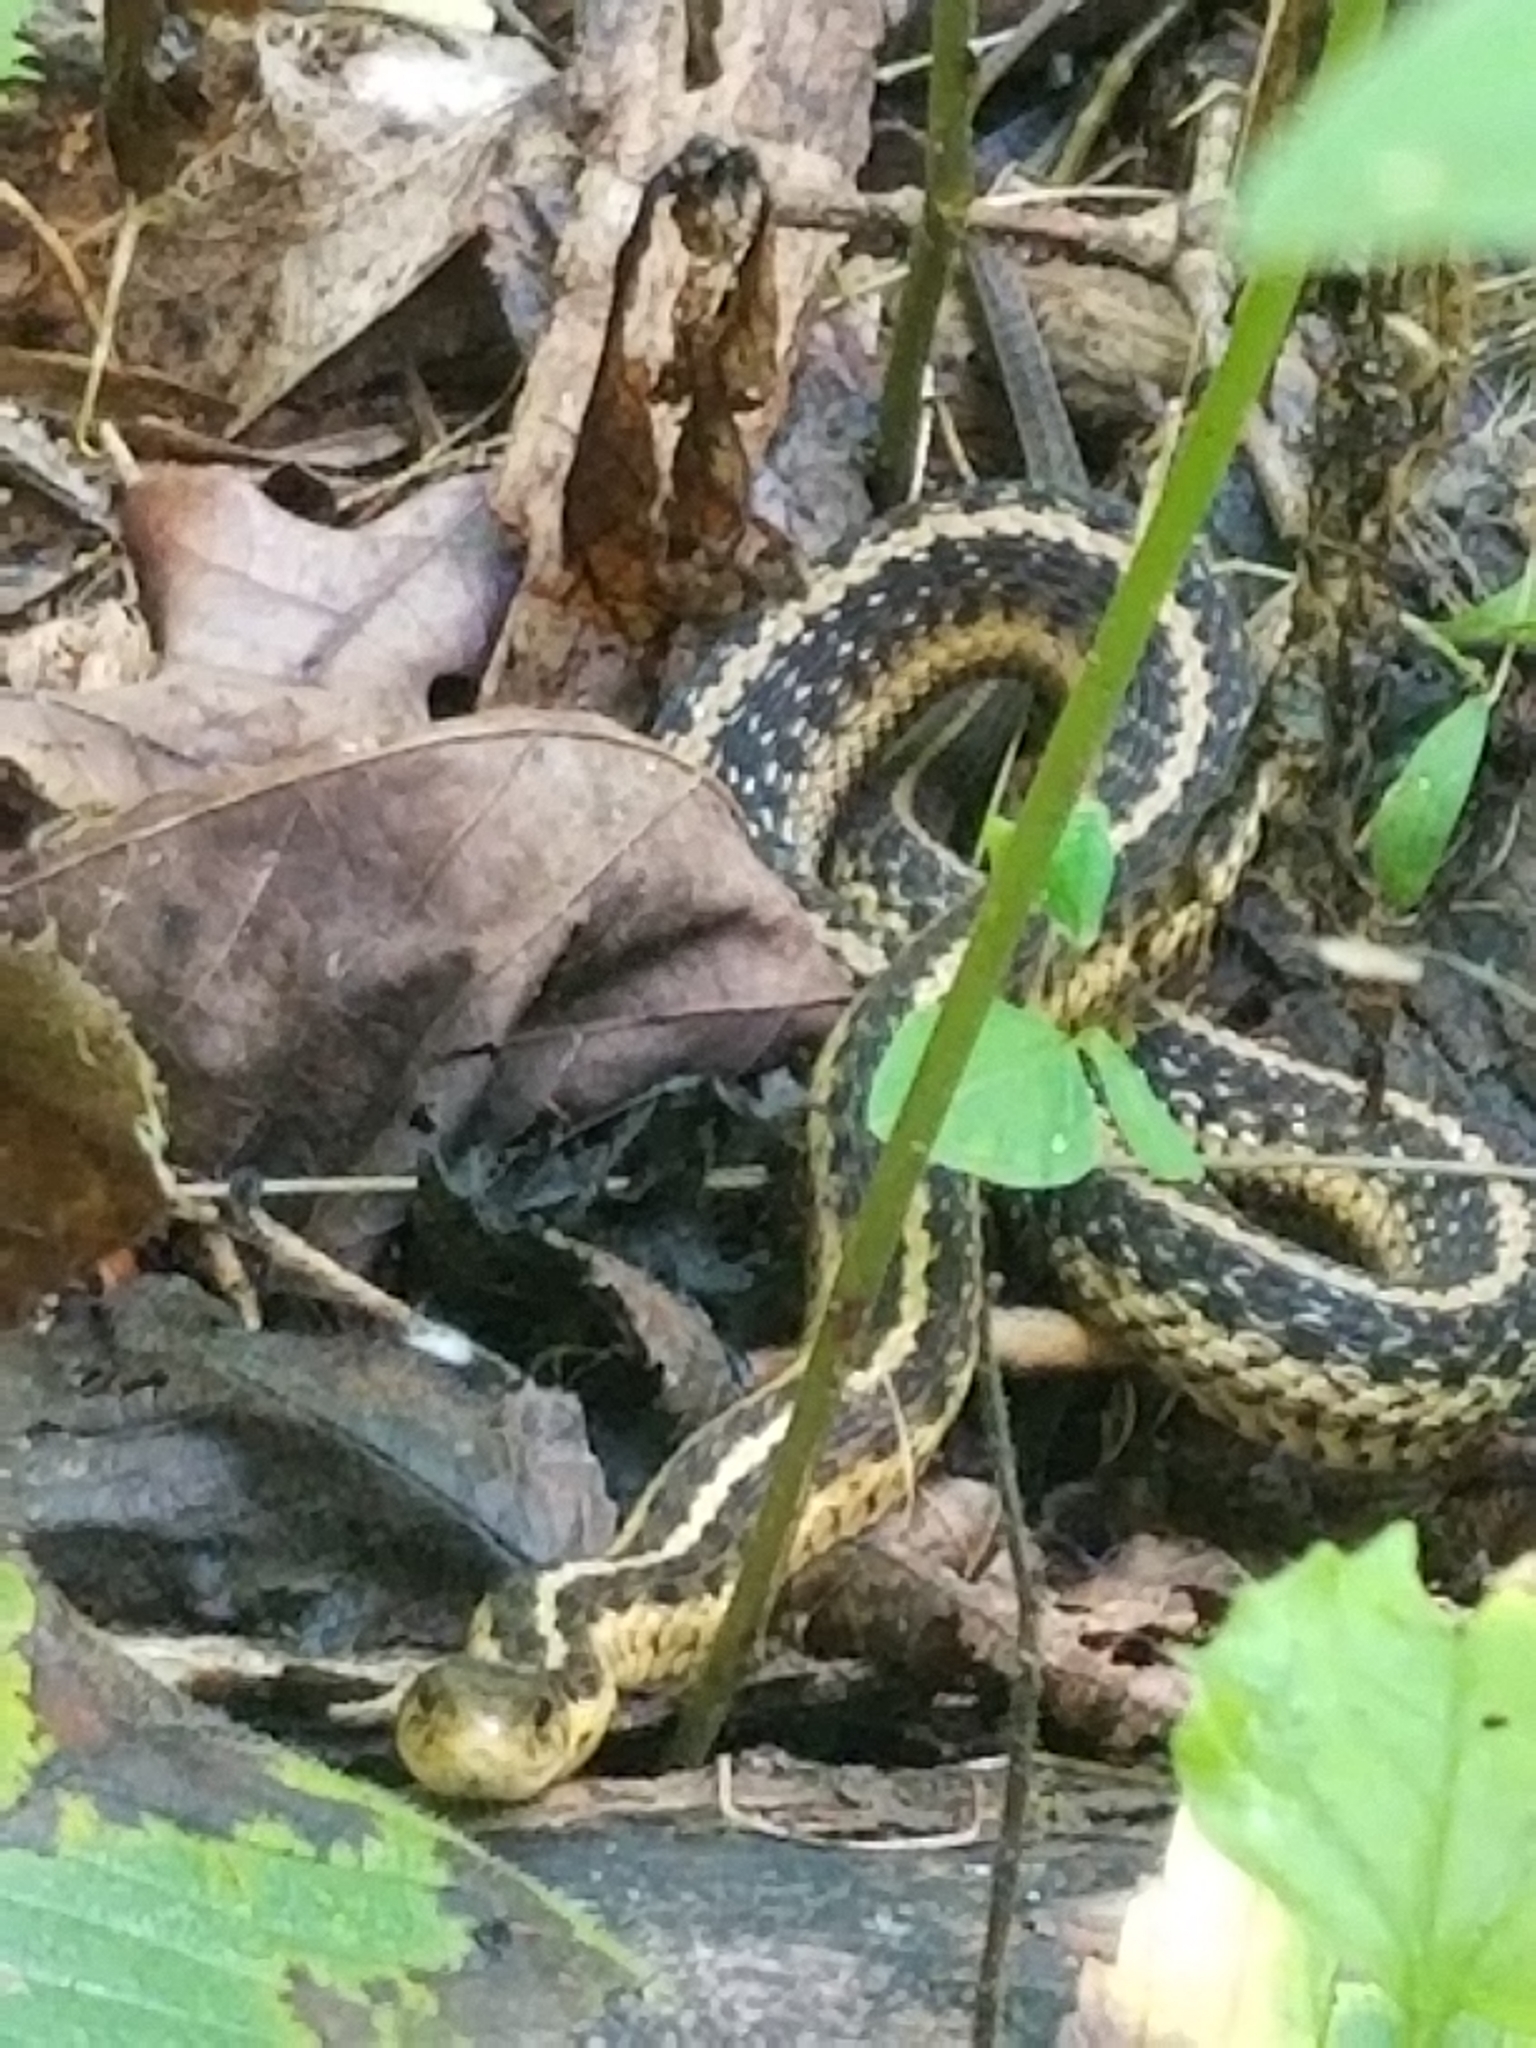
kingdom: Animalia
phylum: Chordata
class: Squamata
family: Colubridae
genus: Thamnophis
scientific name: Thamnophis sirtalis
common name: Common garter snake
